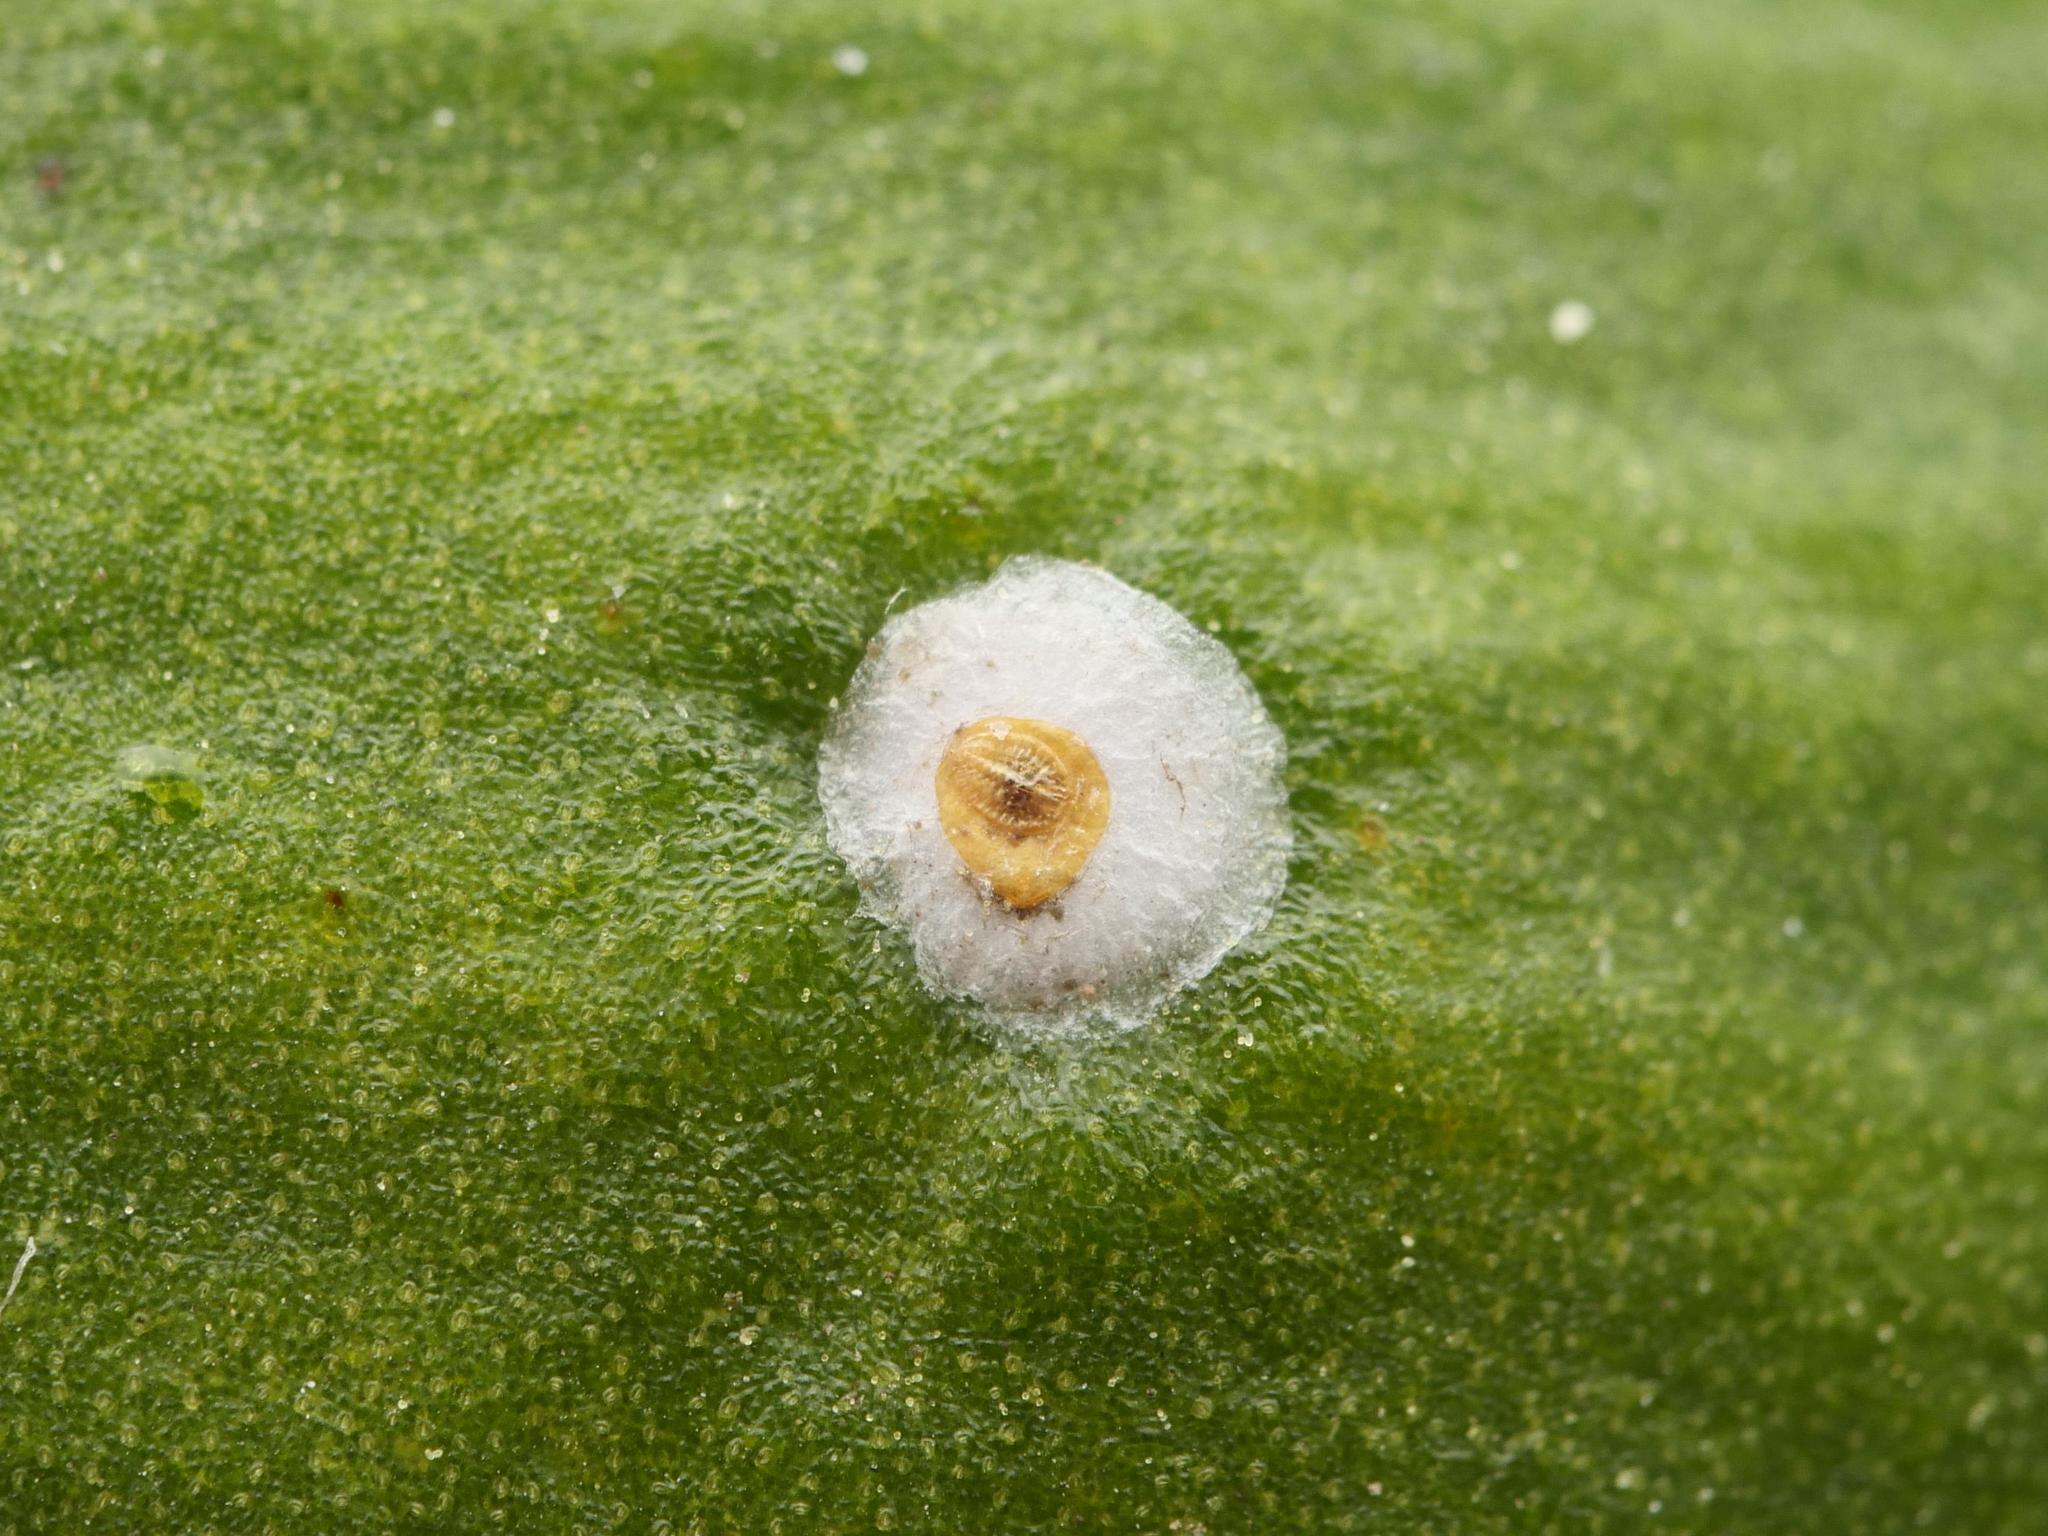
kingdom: Animalia
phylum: Arthropoda
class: Insecta
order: Hemiptera
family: Diaspididae
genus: Carulaspis
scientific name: Carulaspis visci
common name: Mistletoe scale
